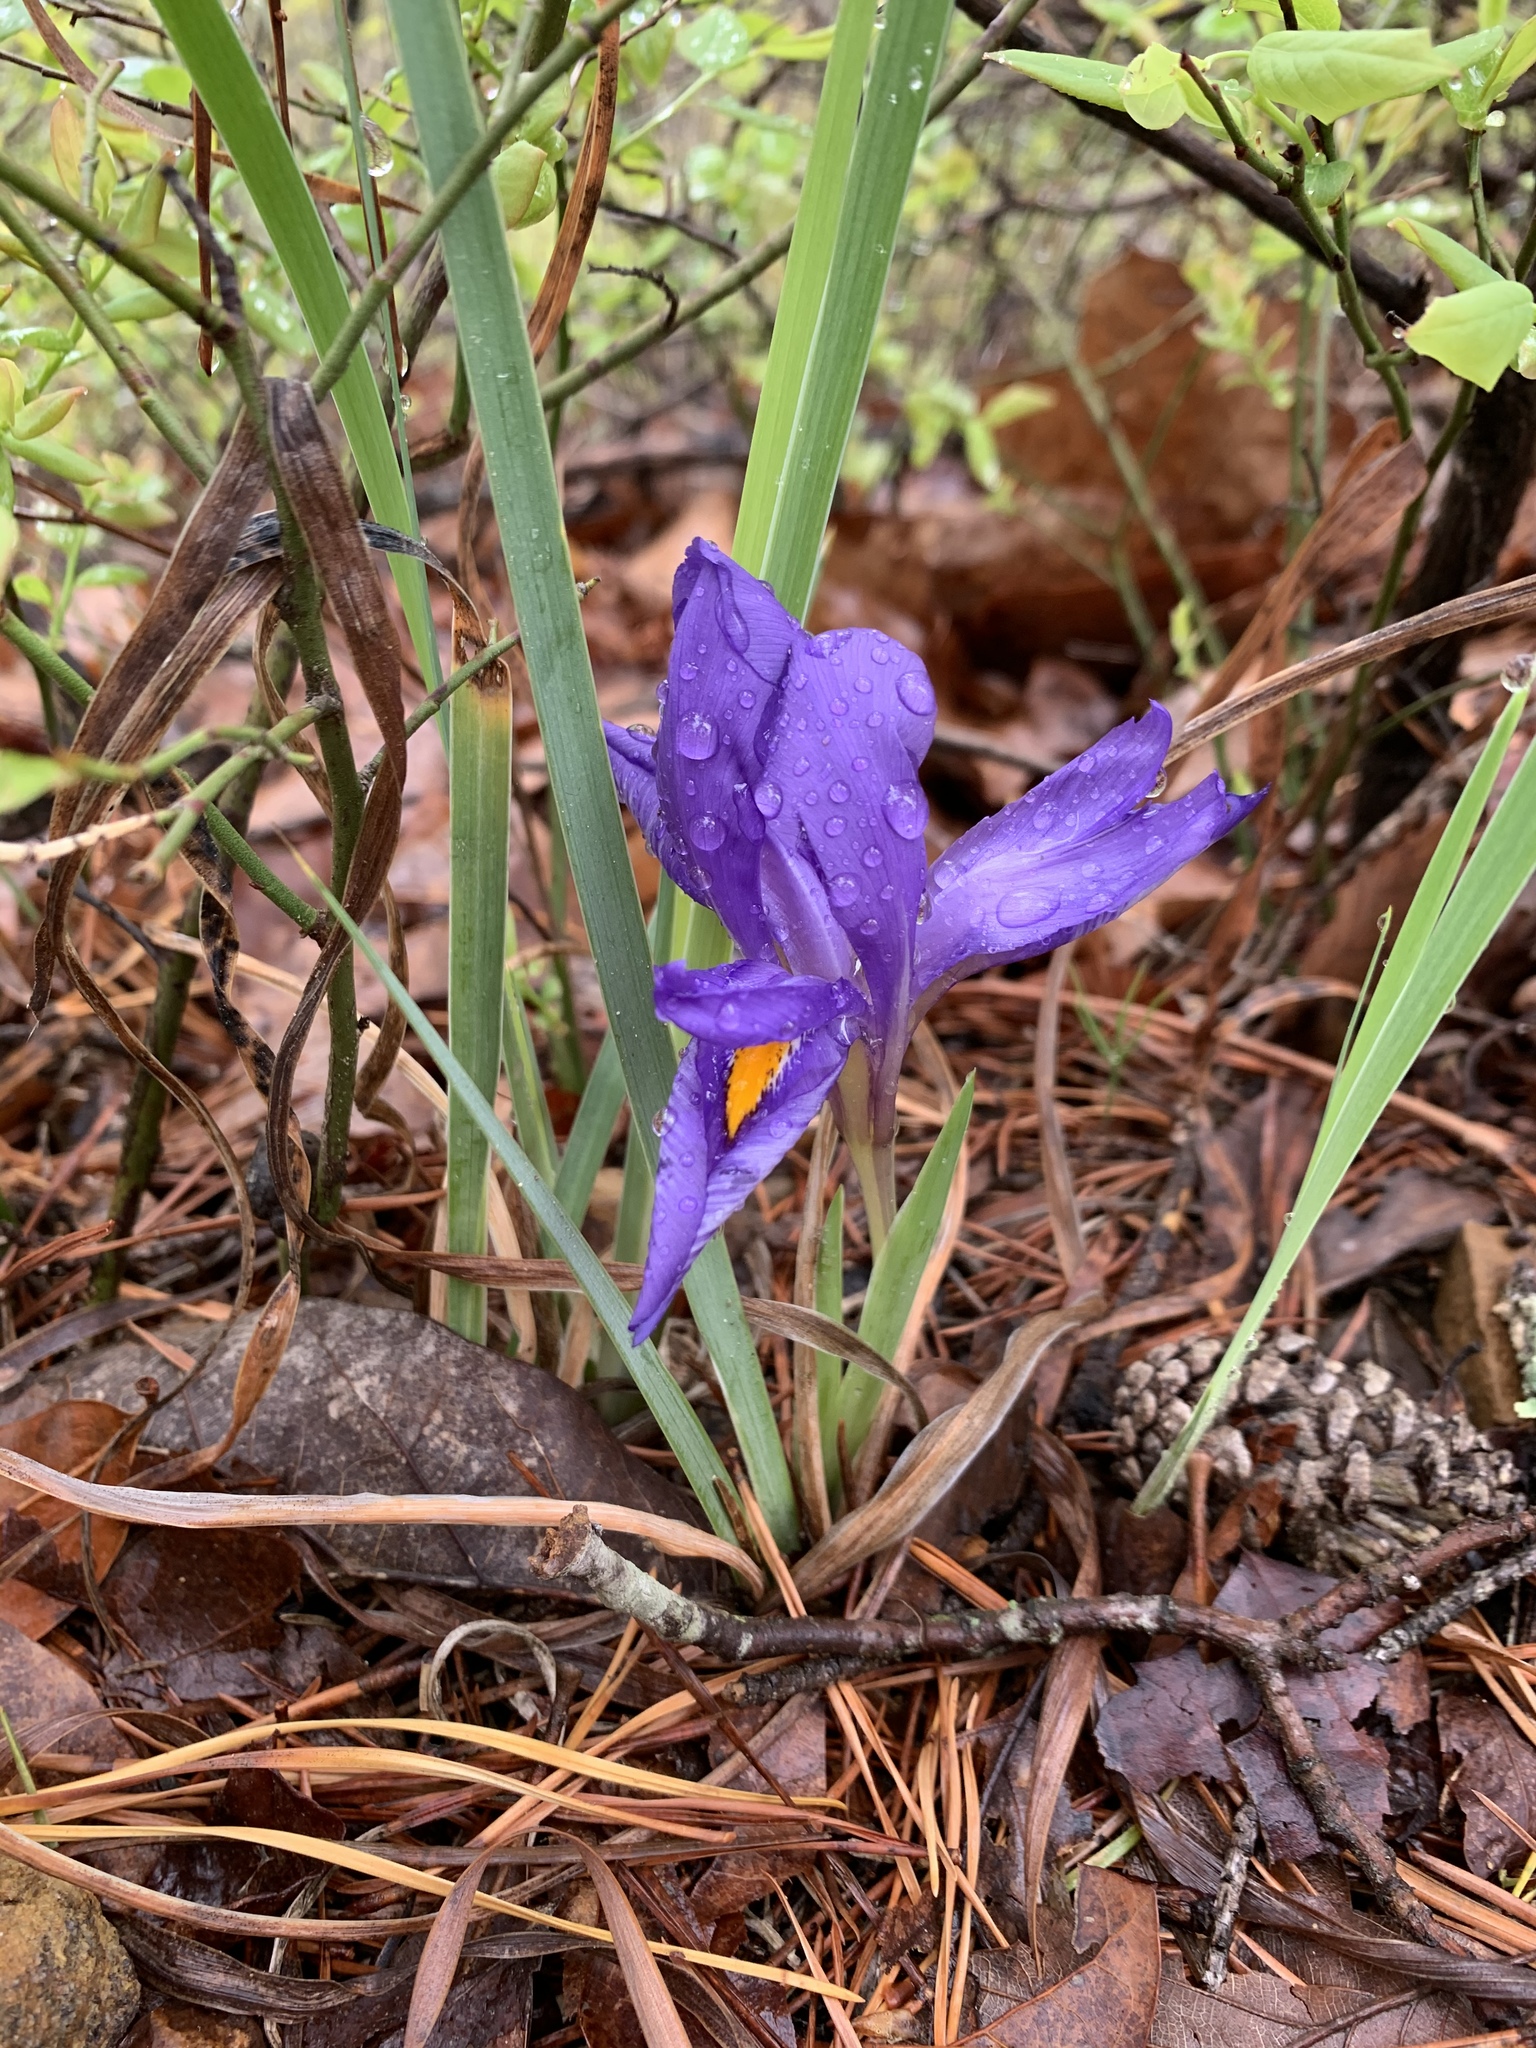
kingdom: Plantae
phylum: Tracheophyta
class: Liliopsida
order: Asparagales
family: Iridaceae
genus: Iris
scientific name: Iris verna
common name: Dwarf iris
